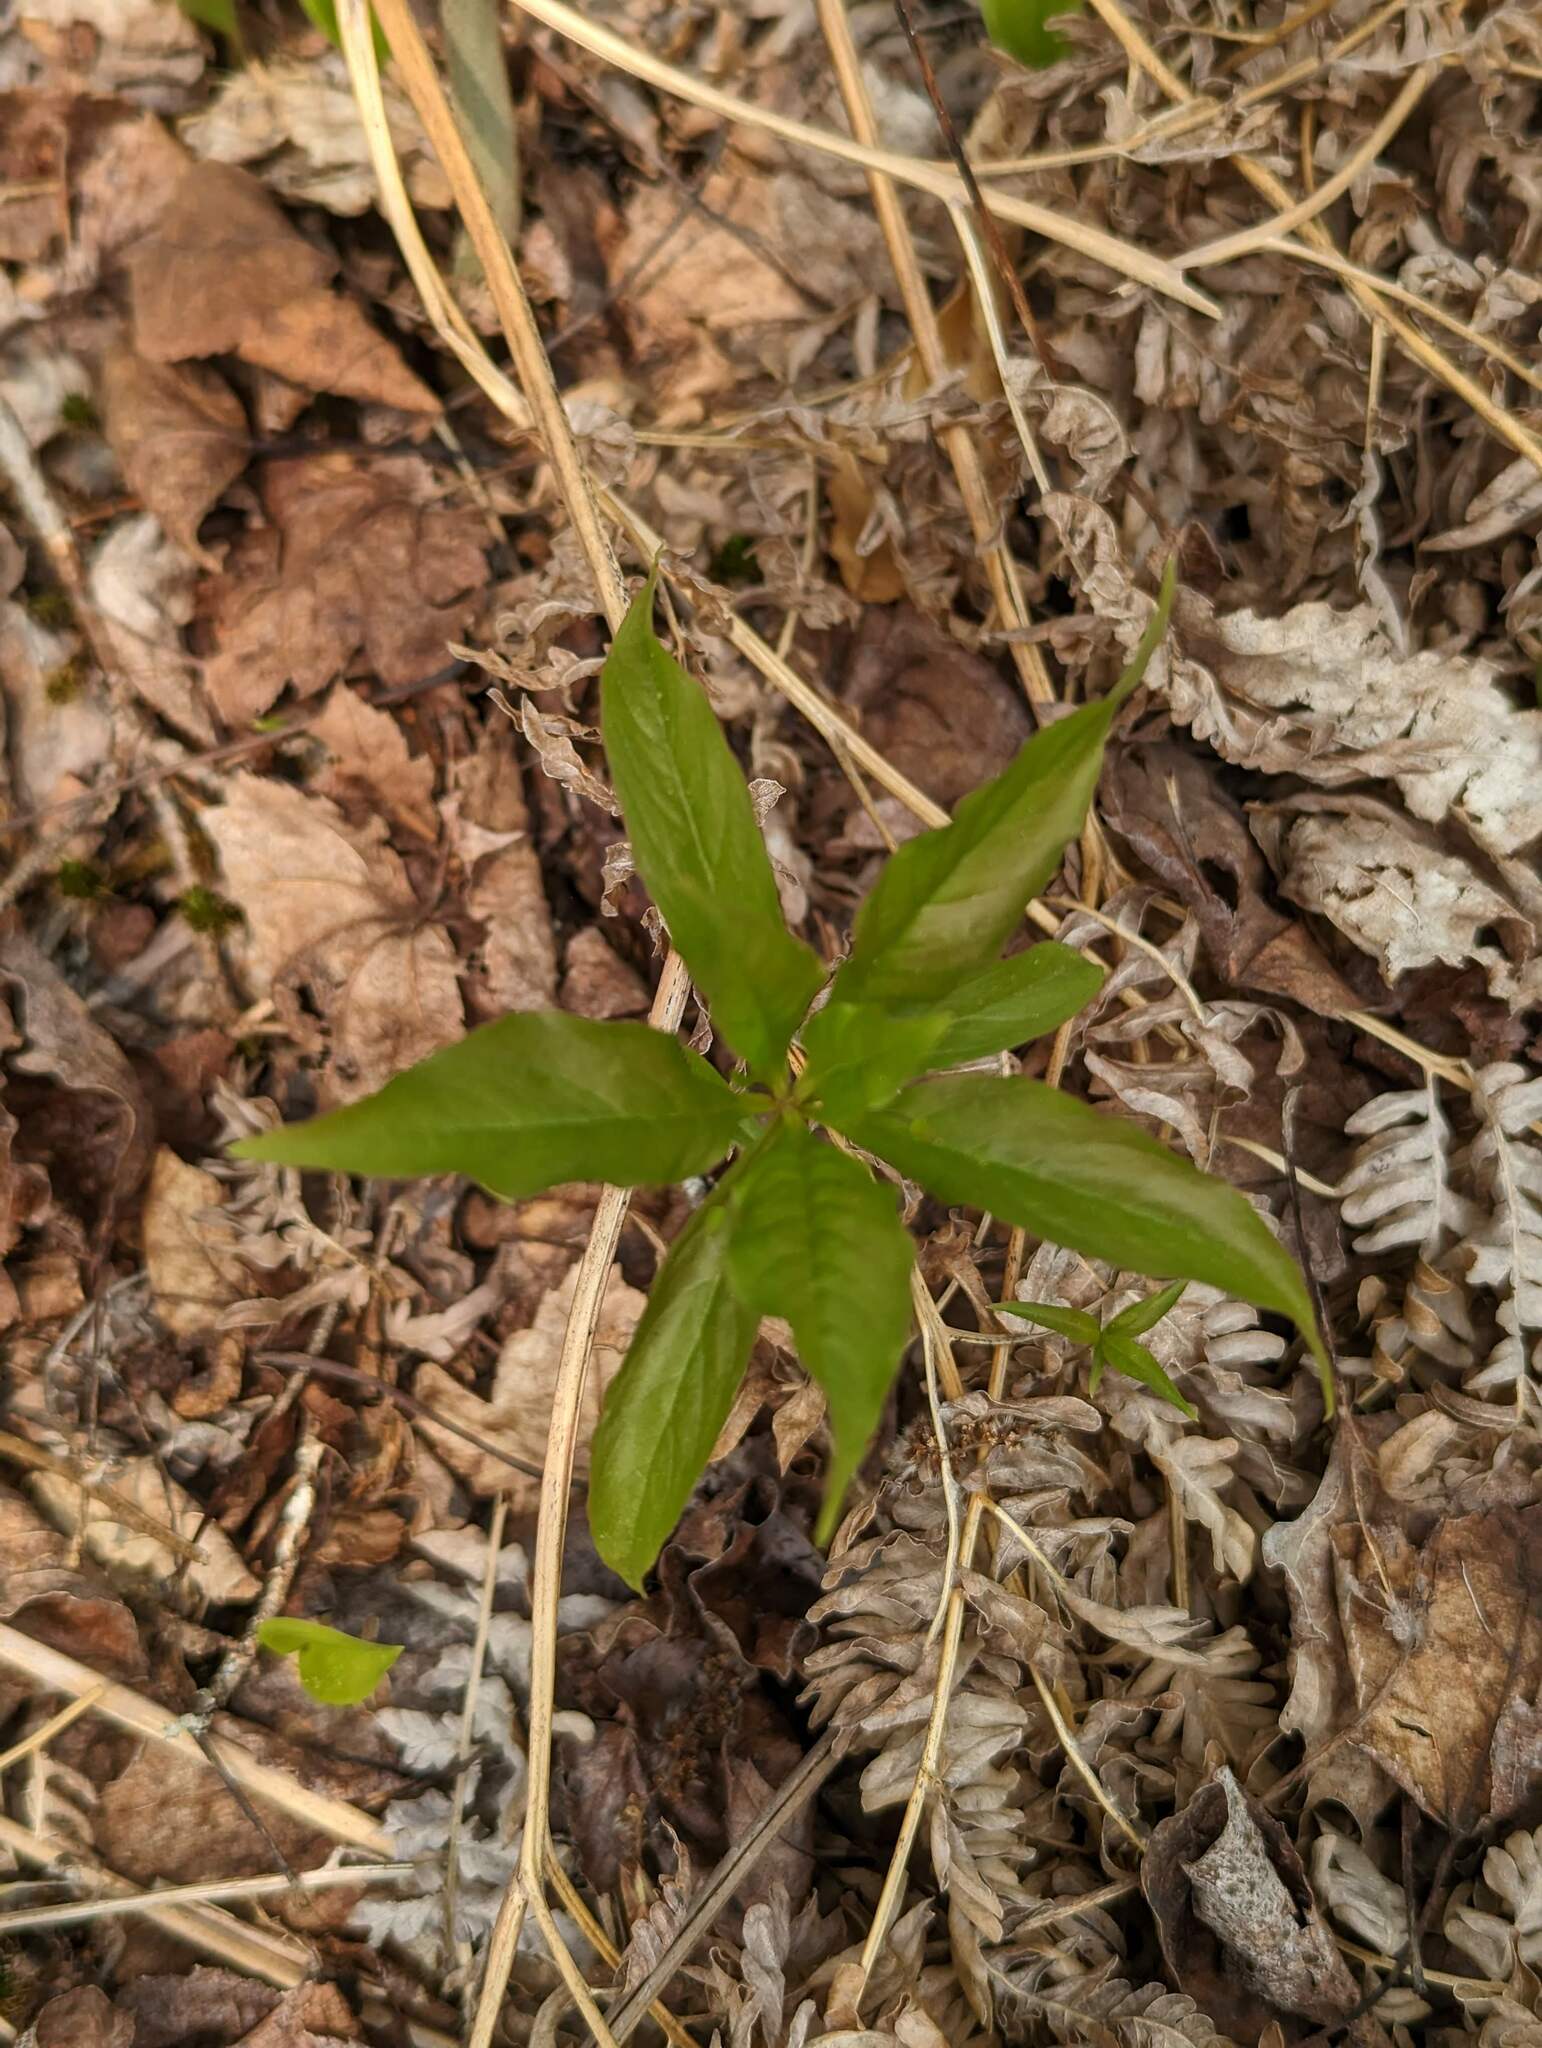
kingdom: Plantae
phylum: Tracheophyta
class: Magnoliopsida
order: Ericales
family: Primulaceae
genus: Lysimachia
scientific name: Lysimachia borealis
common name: American starflower
